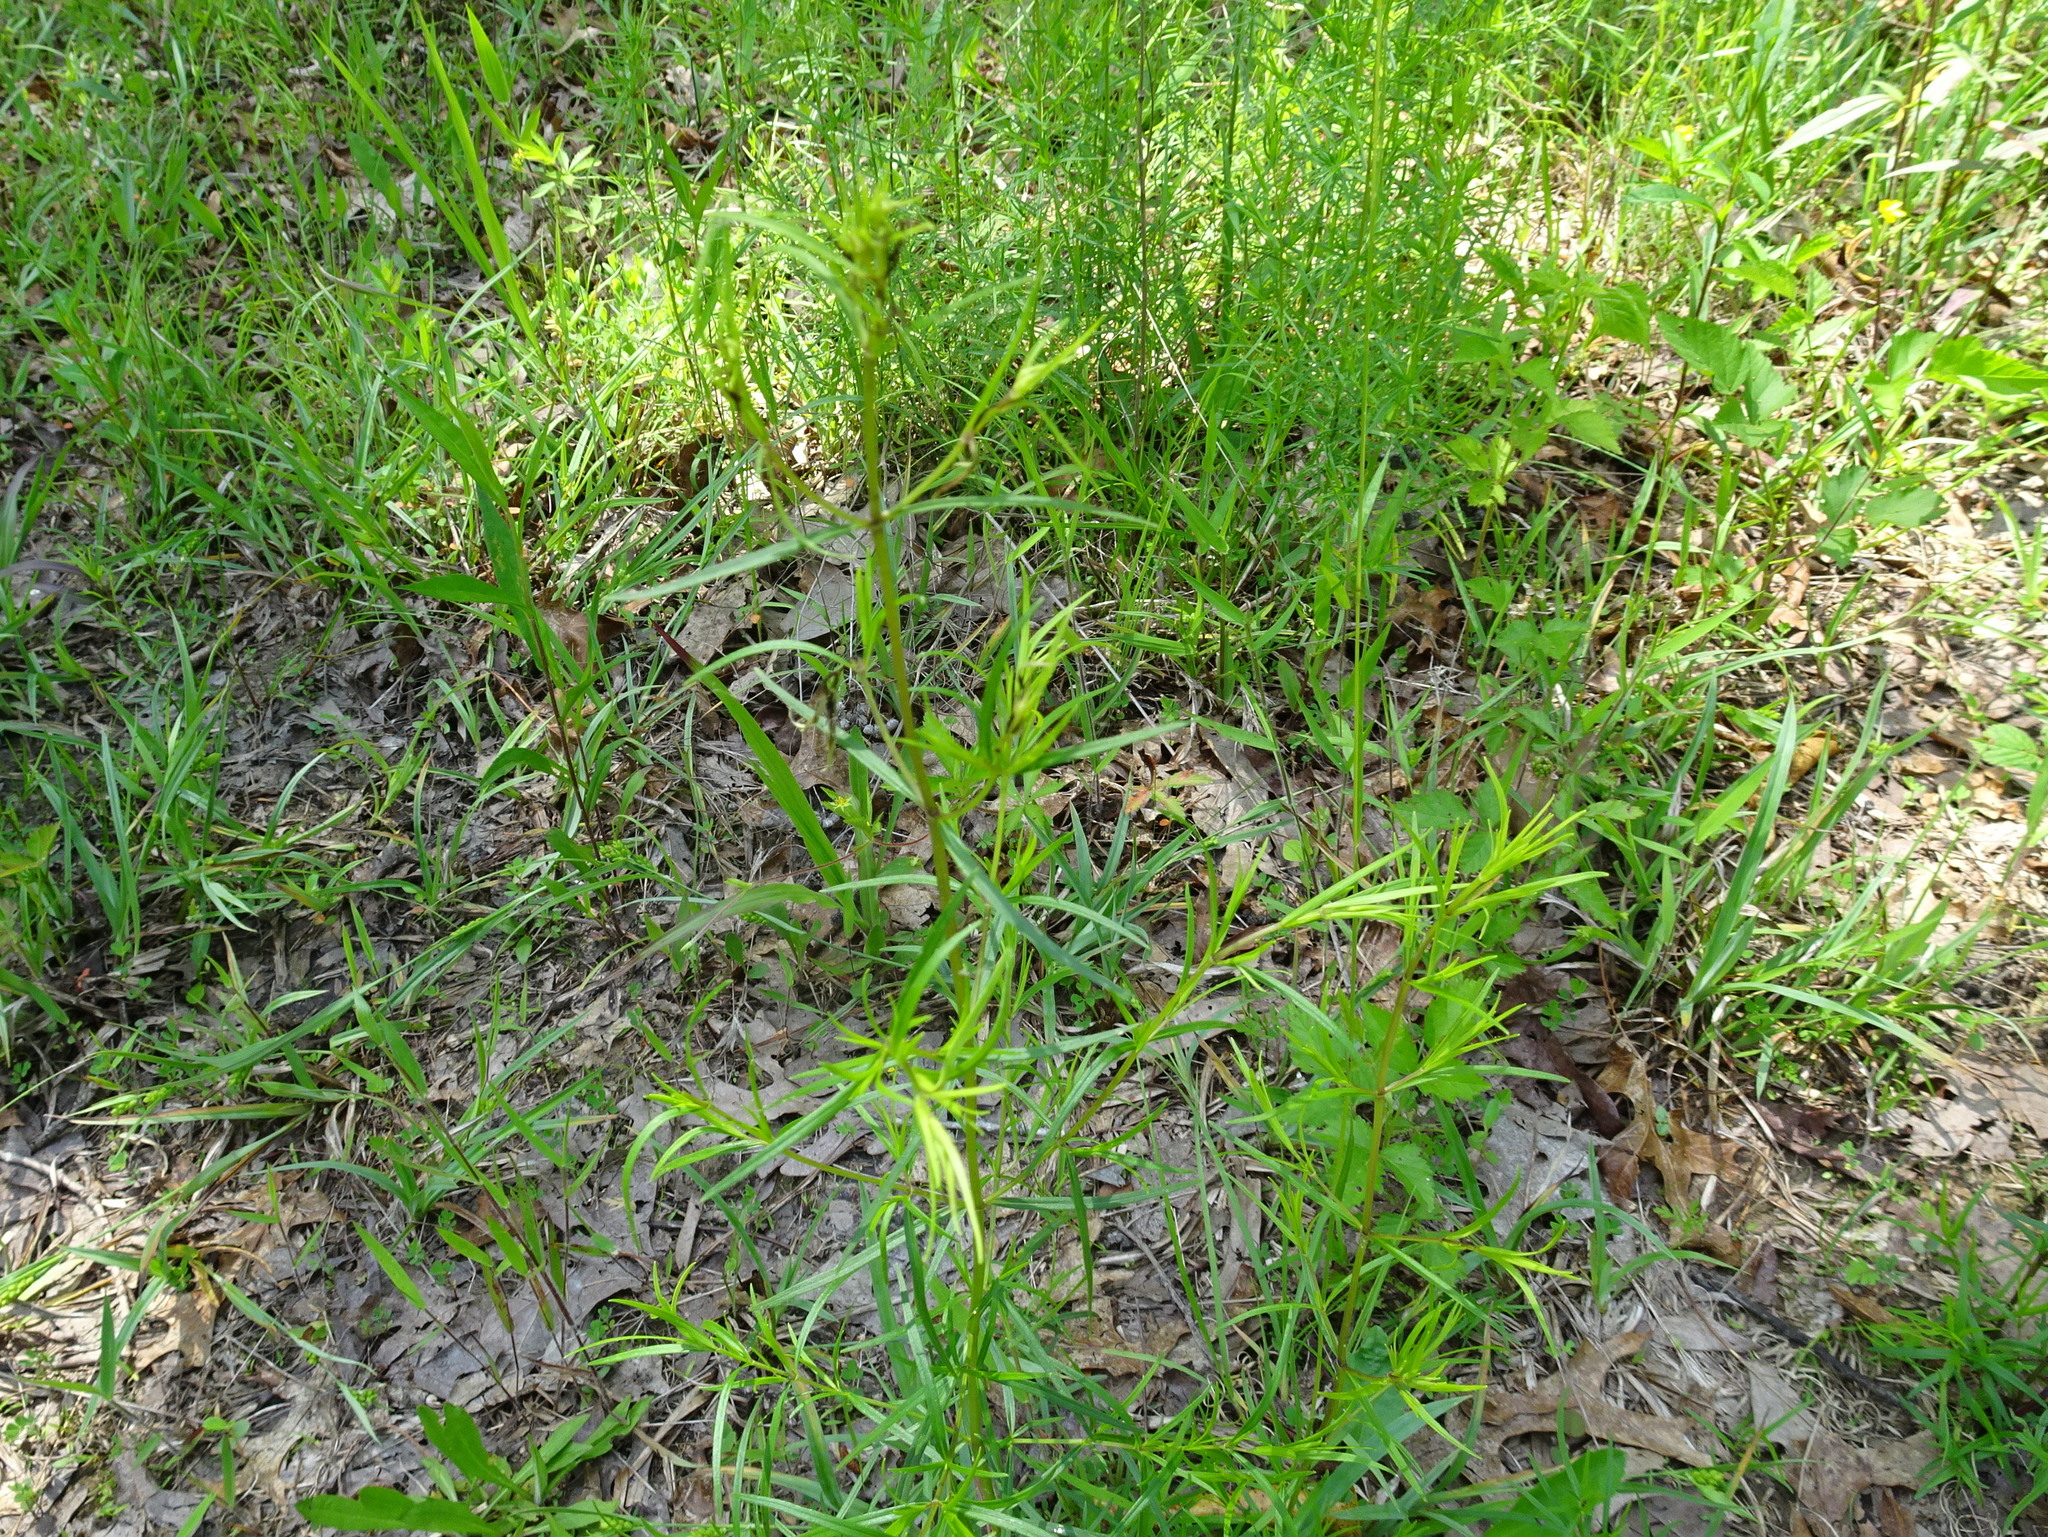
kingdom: Plantae
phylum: Tracheophyta
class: Magnoliopsida
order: Lamiales
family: Lamiaceae
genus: Pycnanthemum
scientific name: Pycnanthemum tenuifolium
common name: Narrow-leaf mountain-mint
